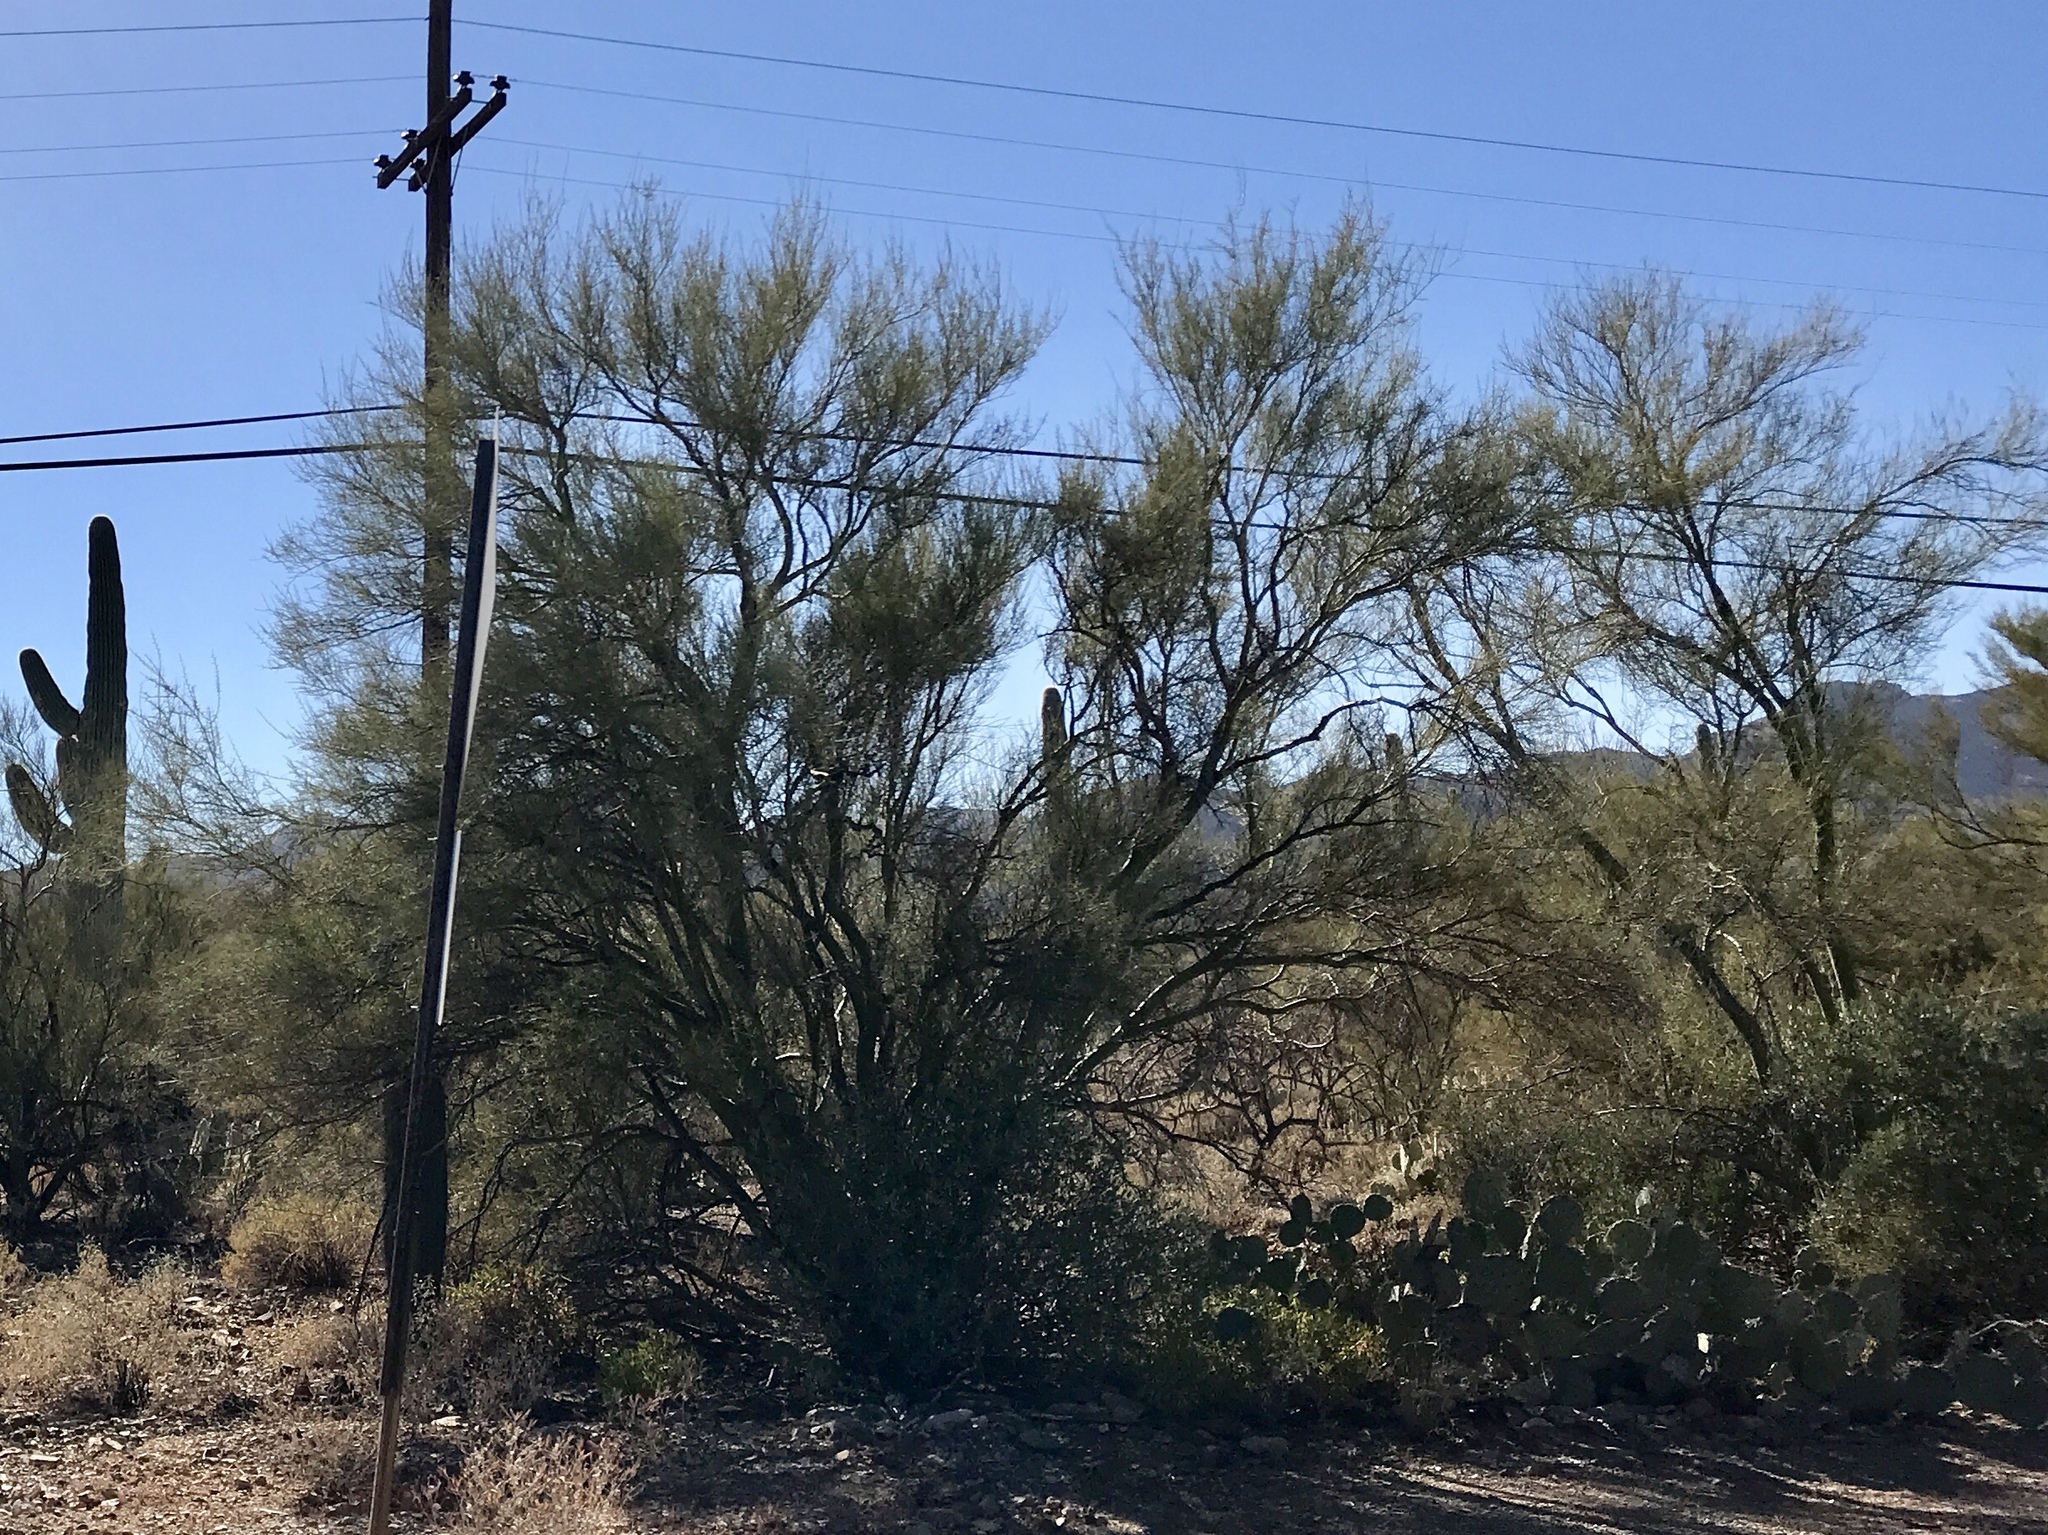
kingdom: Plantae
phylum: Tracheophyta
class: Magnoliopsida
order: Fabales
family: Fabaceae
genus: Parkinsonia
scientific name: Parkinsonia microphylla
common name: Yellow paloverde
